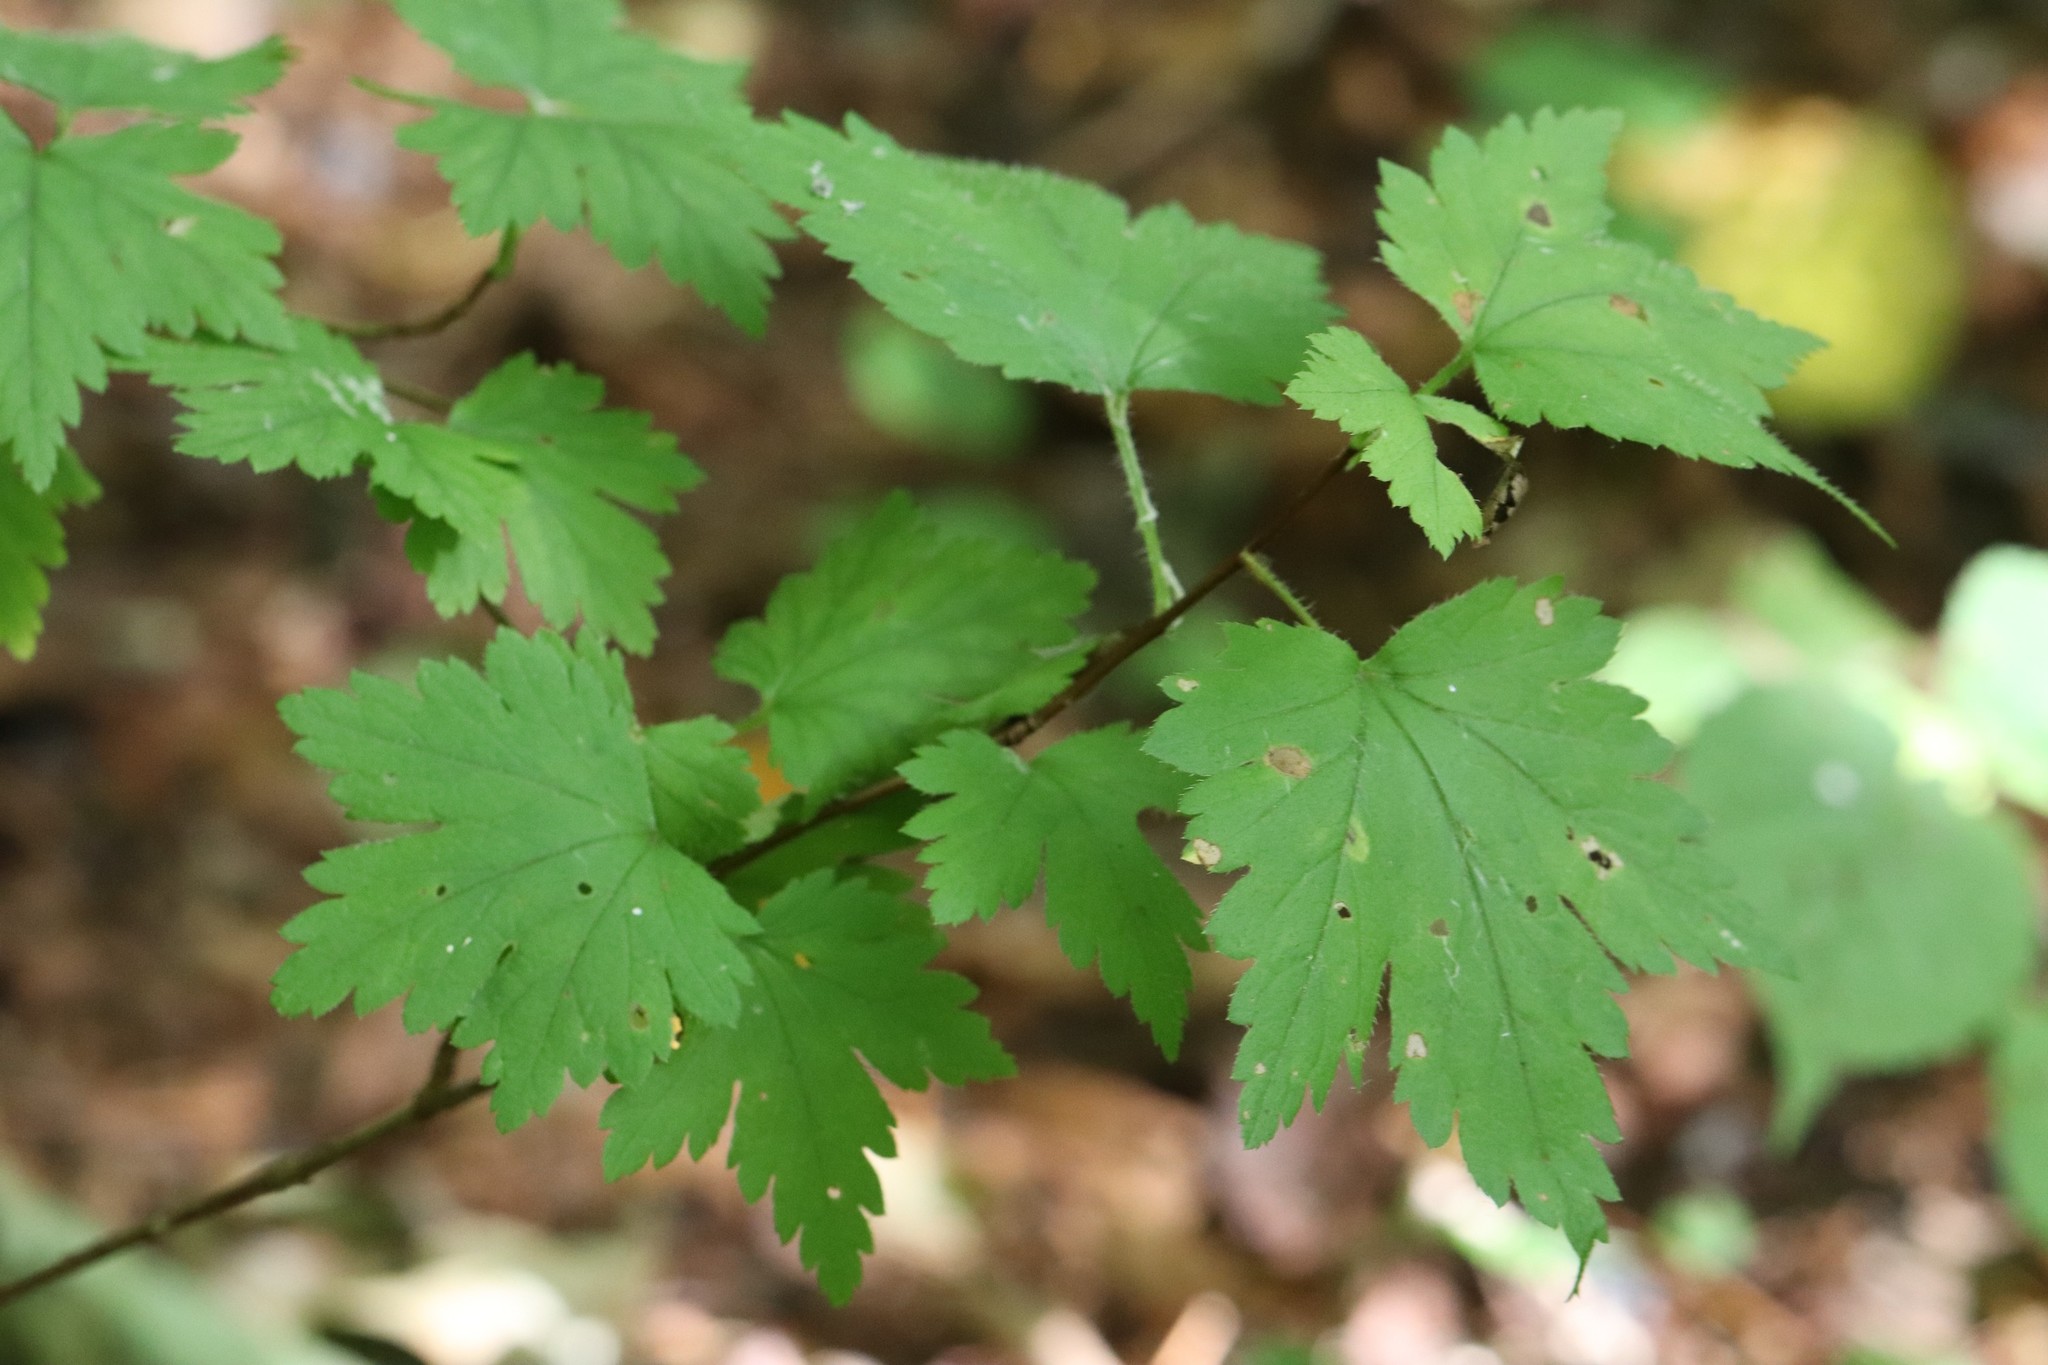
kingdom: Plantae
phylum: Tracheophyta
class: Magnoliopsida
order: Saxifragales
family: Grossulariaceae
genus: Ribes
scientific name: Ribes maximoviczianum
